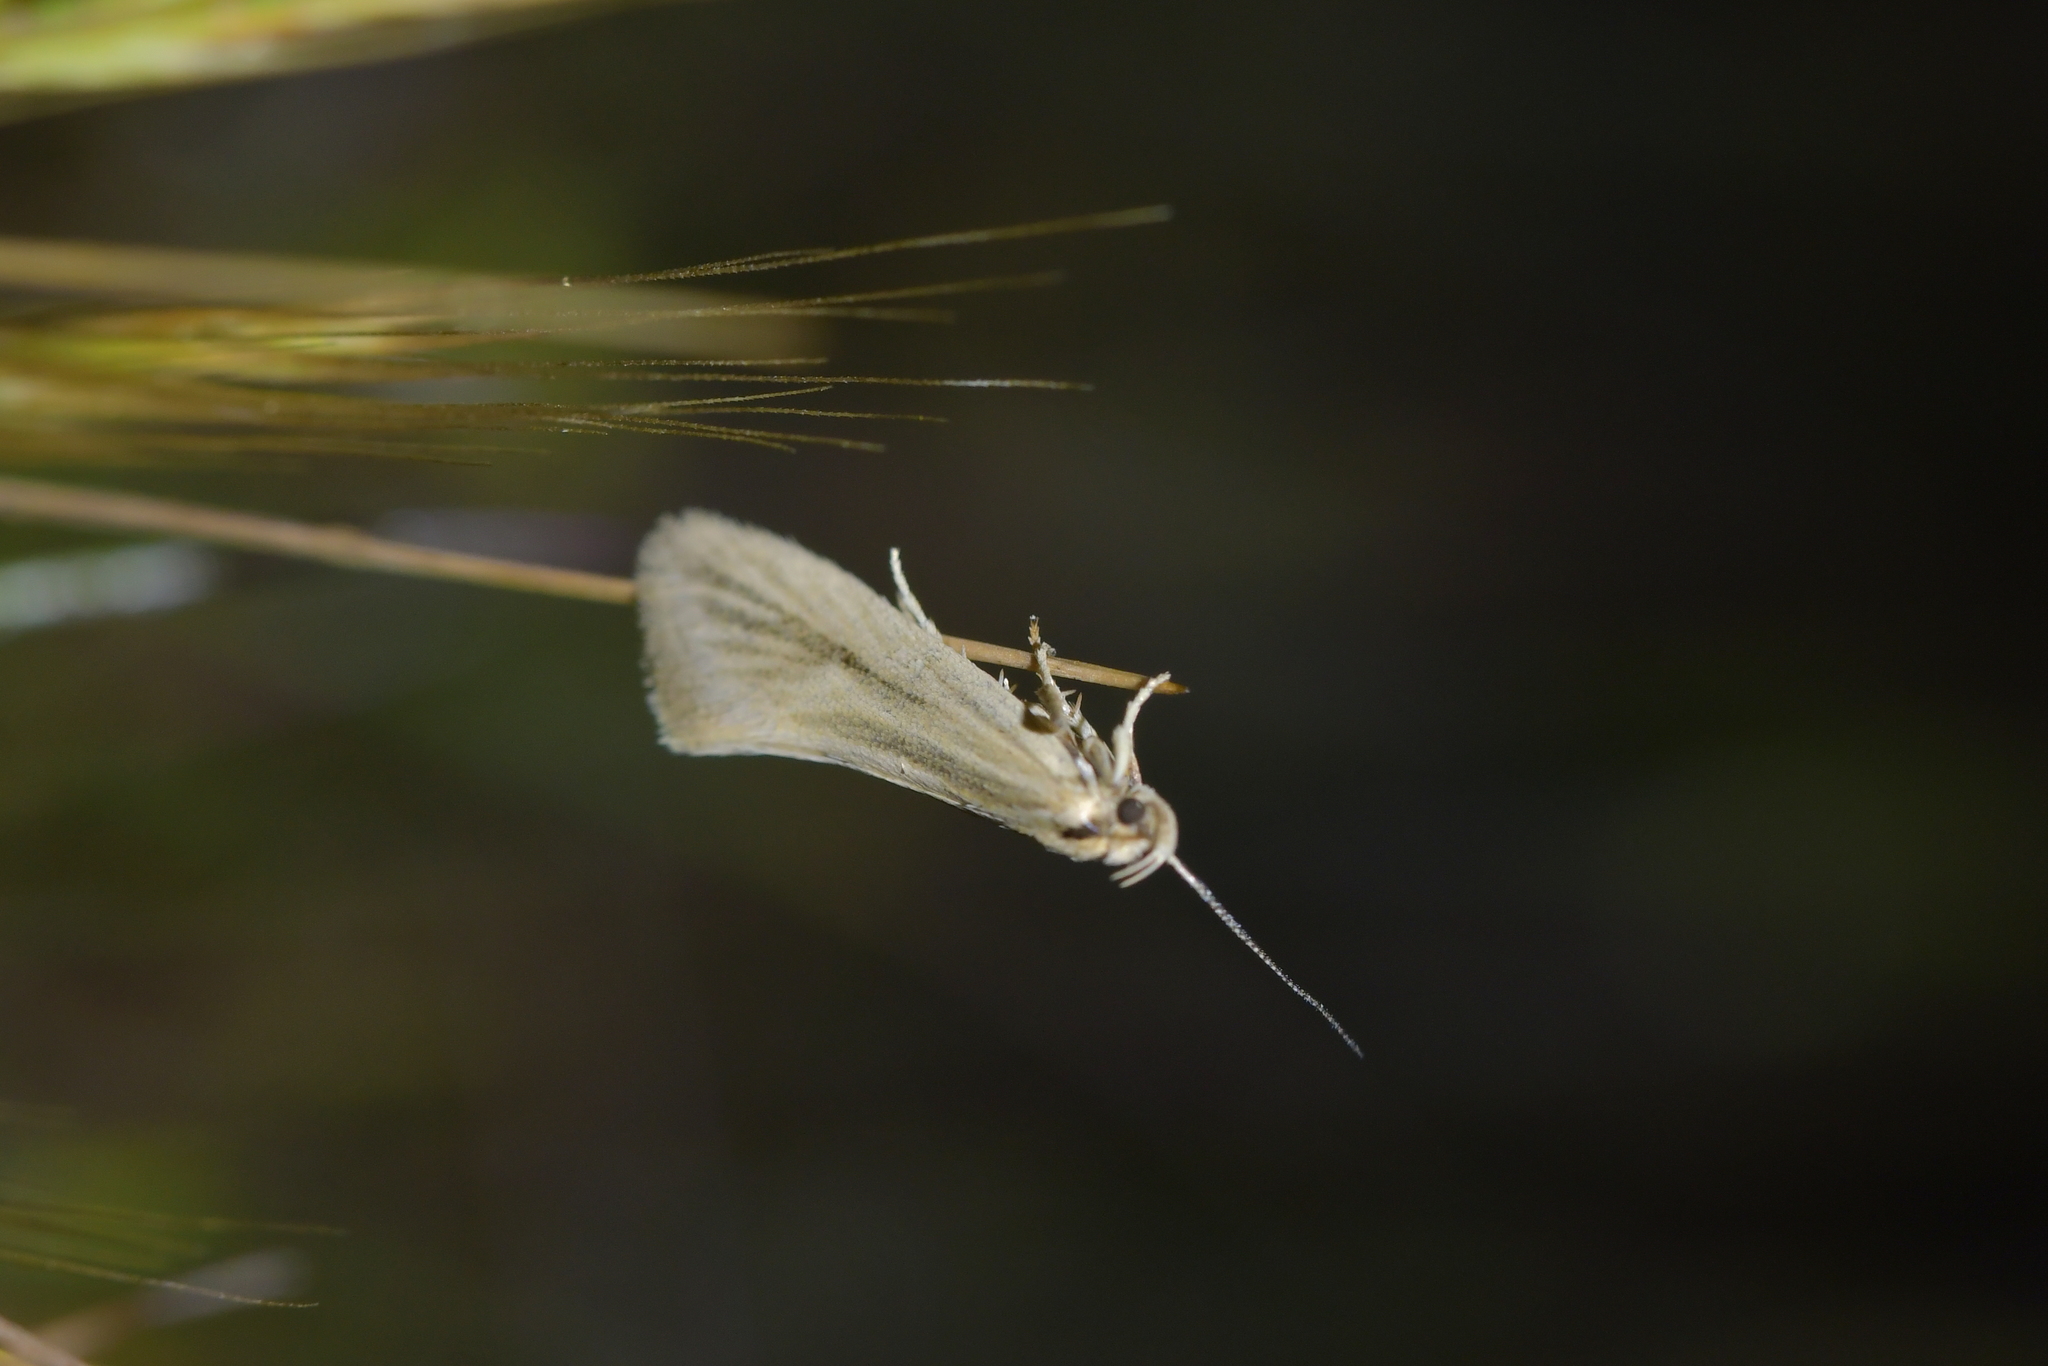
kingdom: Animalia
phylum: Arthropoda
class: Insecta
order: Lepidoptera
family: Oecophoridae
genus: Tingena
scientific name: Tingena chloradelpha
